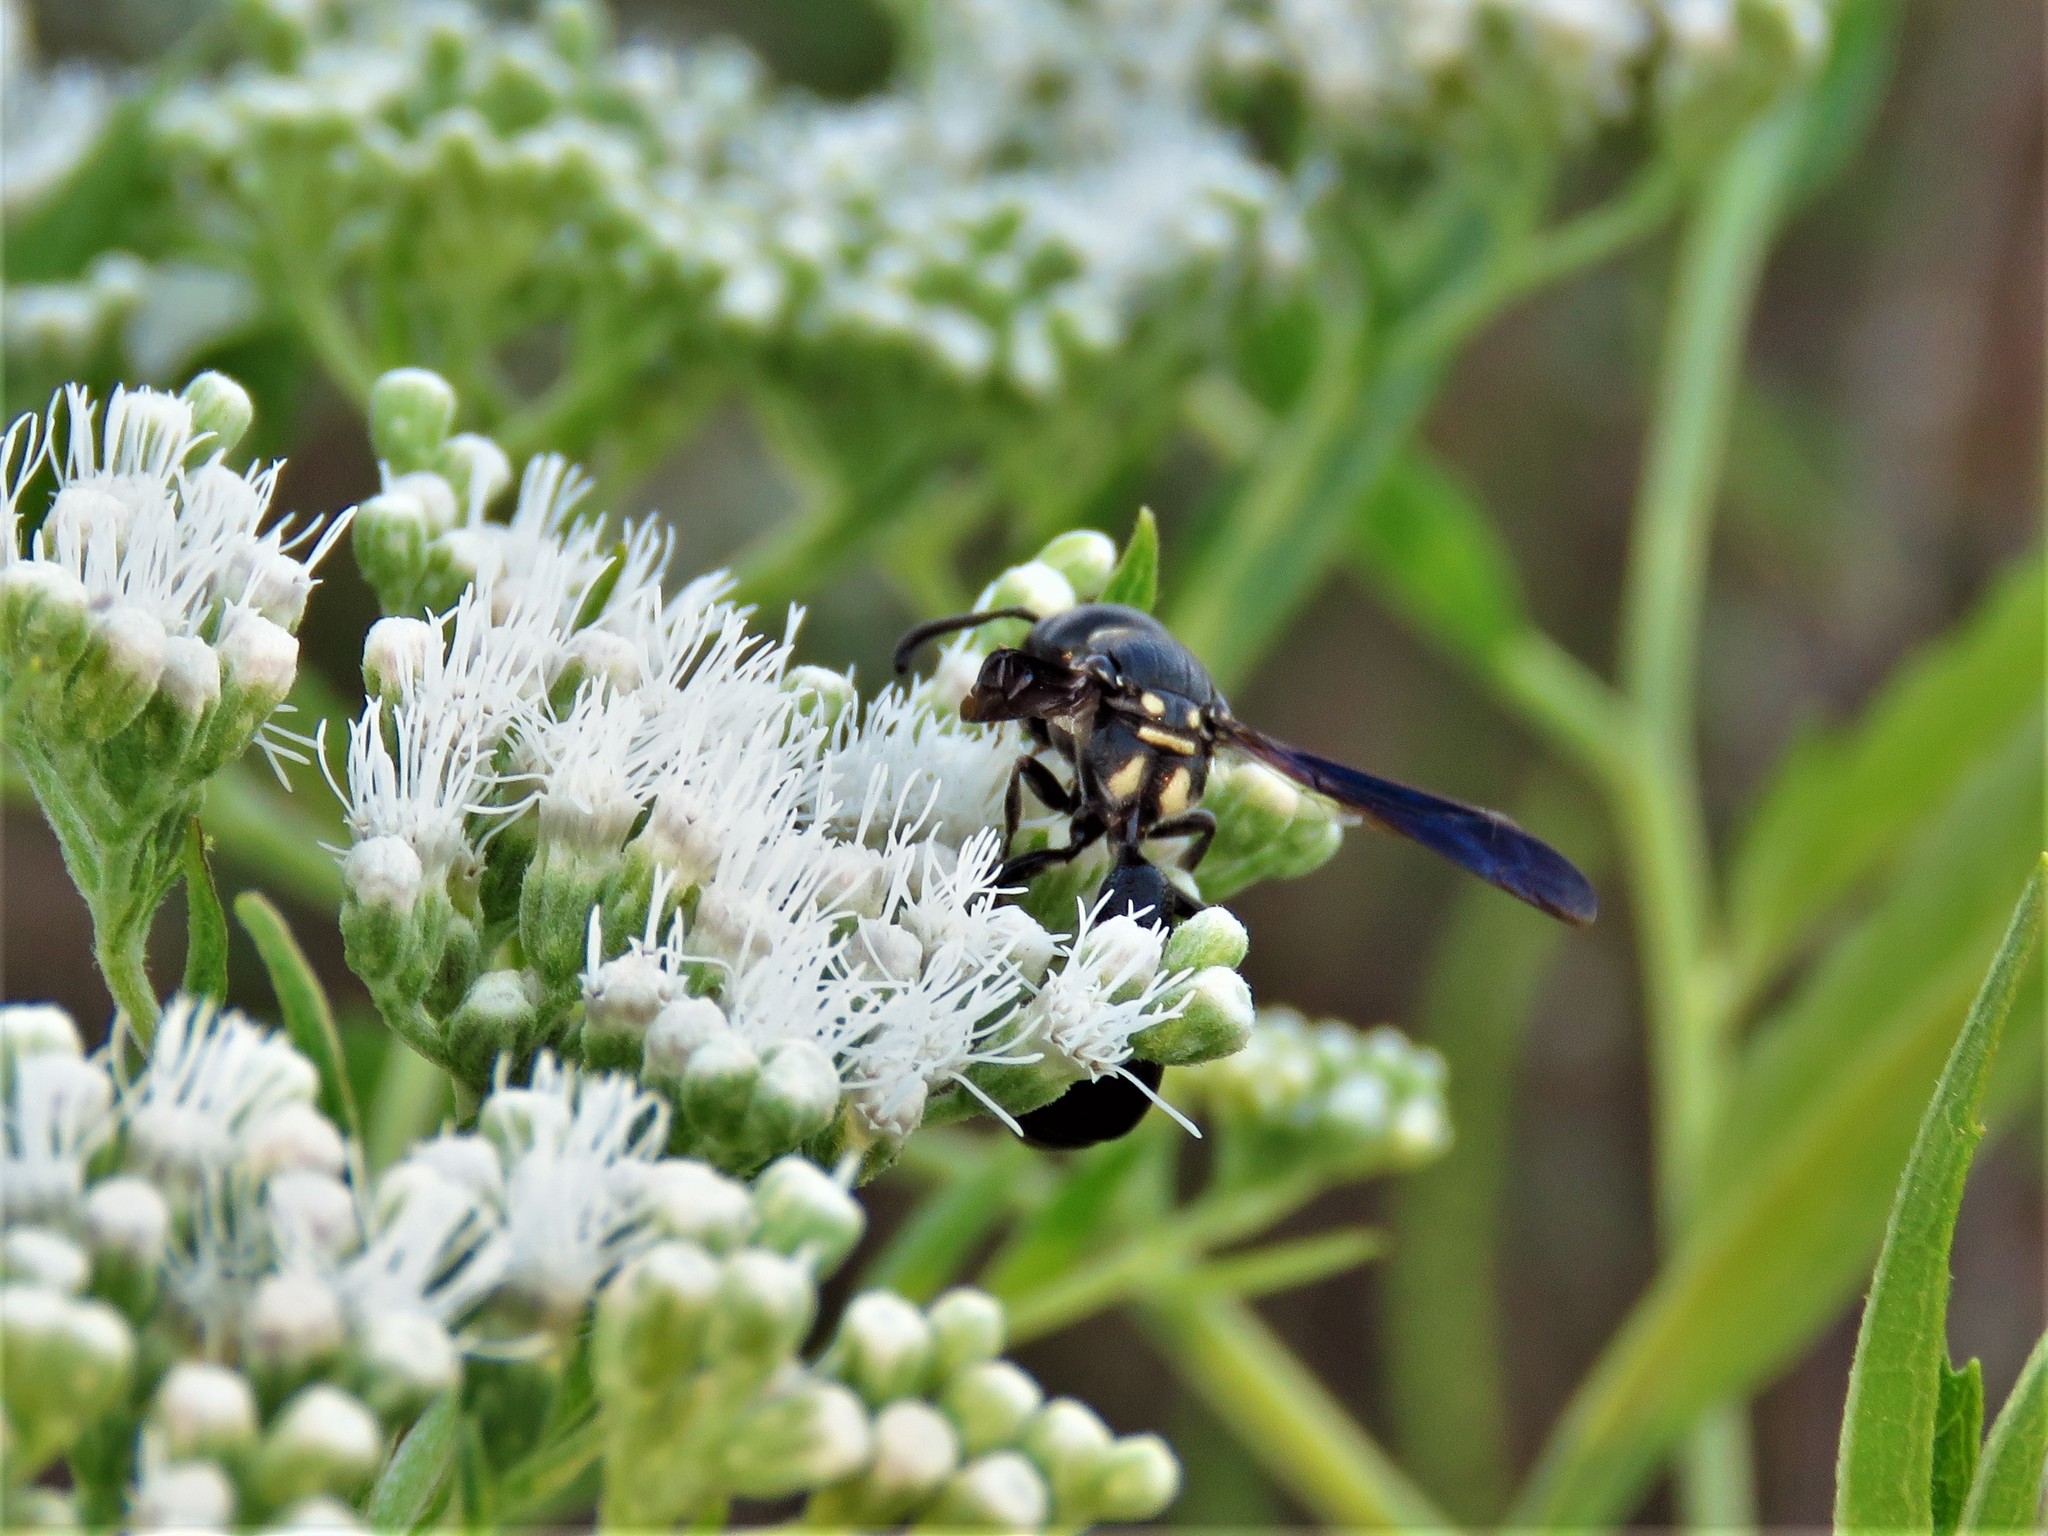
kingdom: Animalia
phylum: Arthropoda
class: Insecta
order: Hymenoptera
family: Eumenidae
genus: Zethus
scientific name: Zethus spinipes
